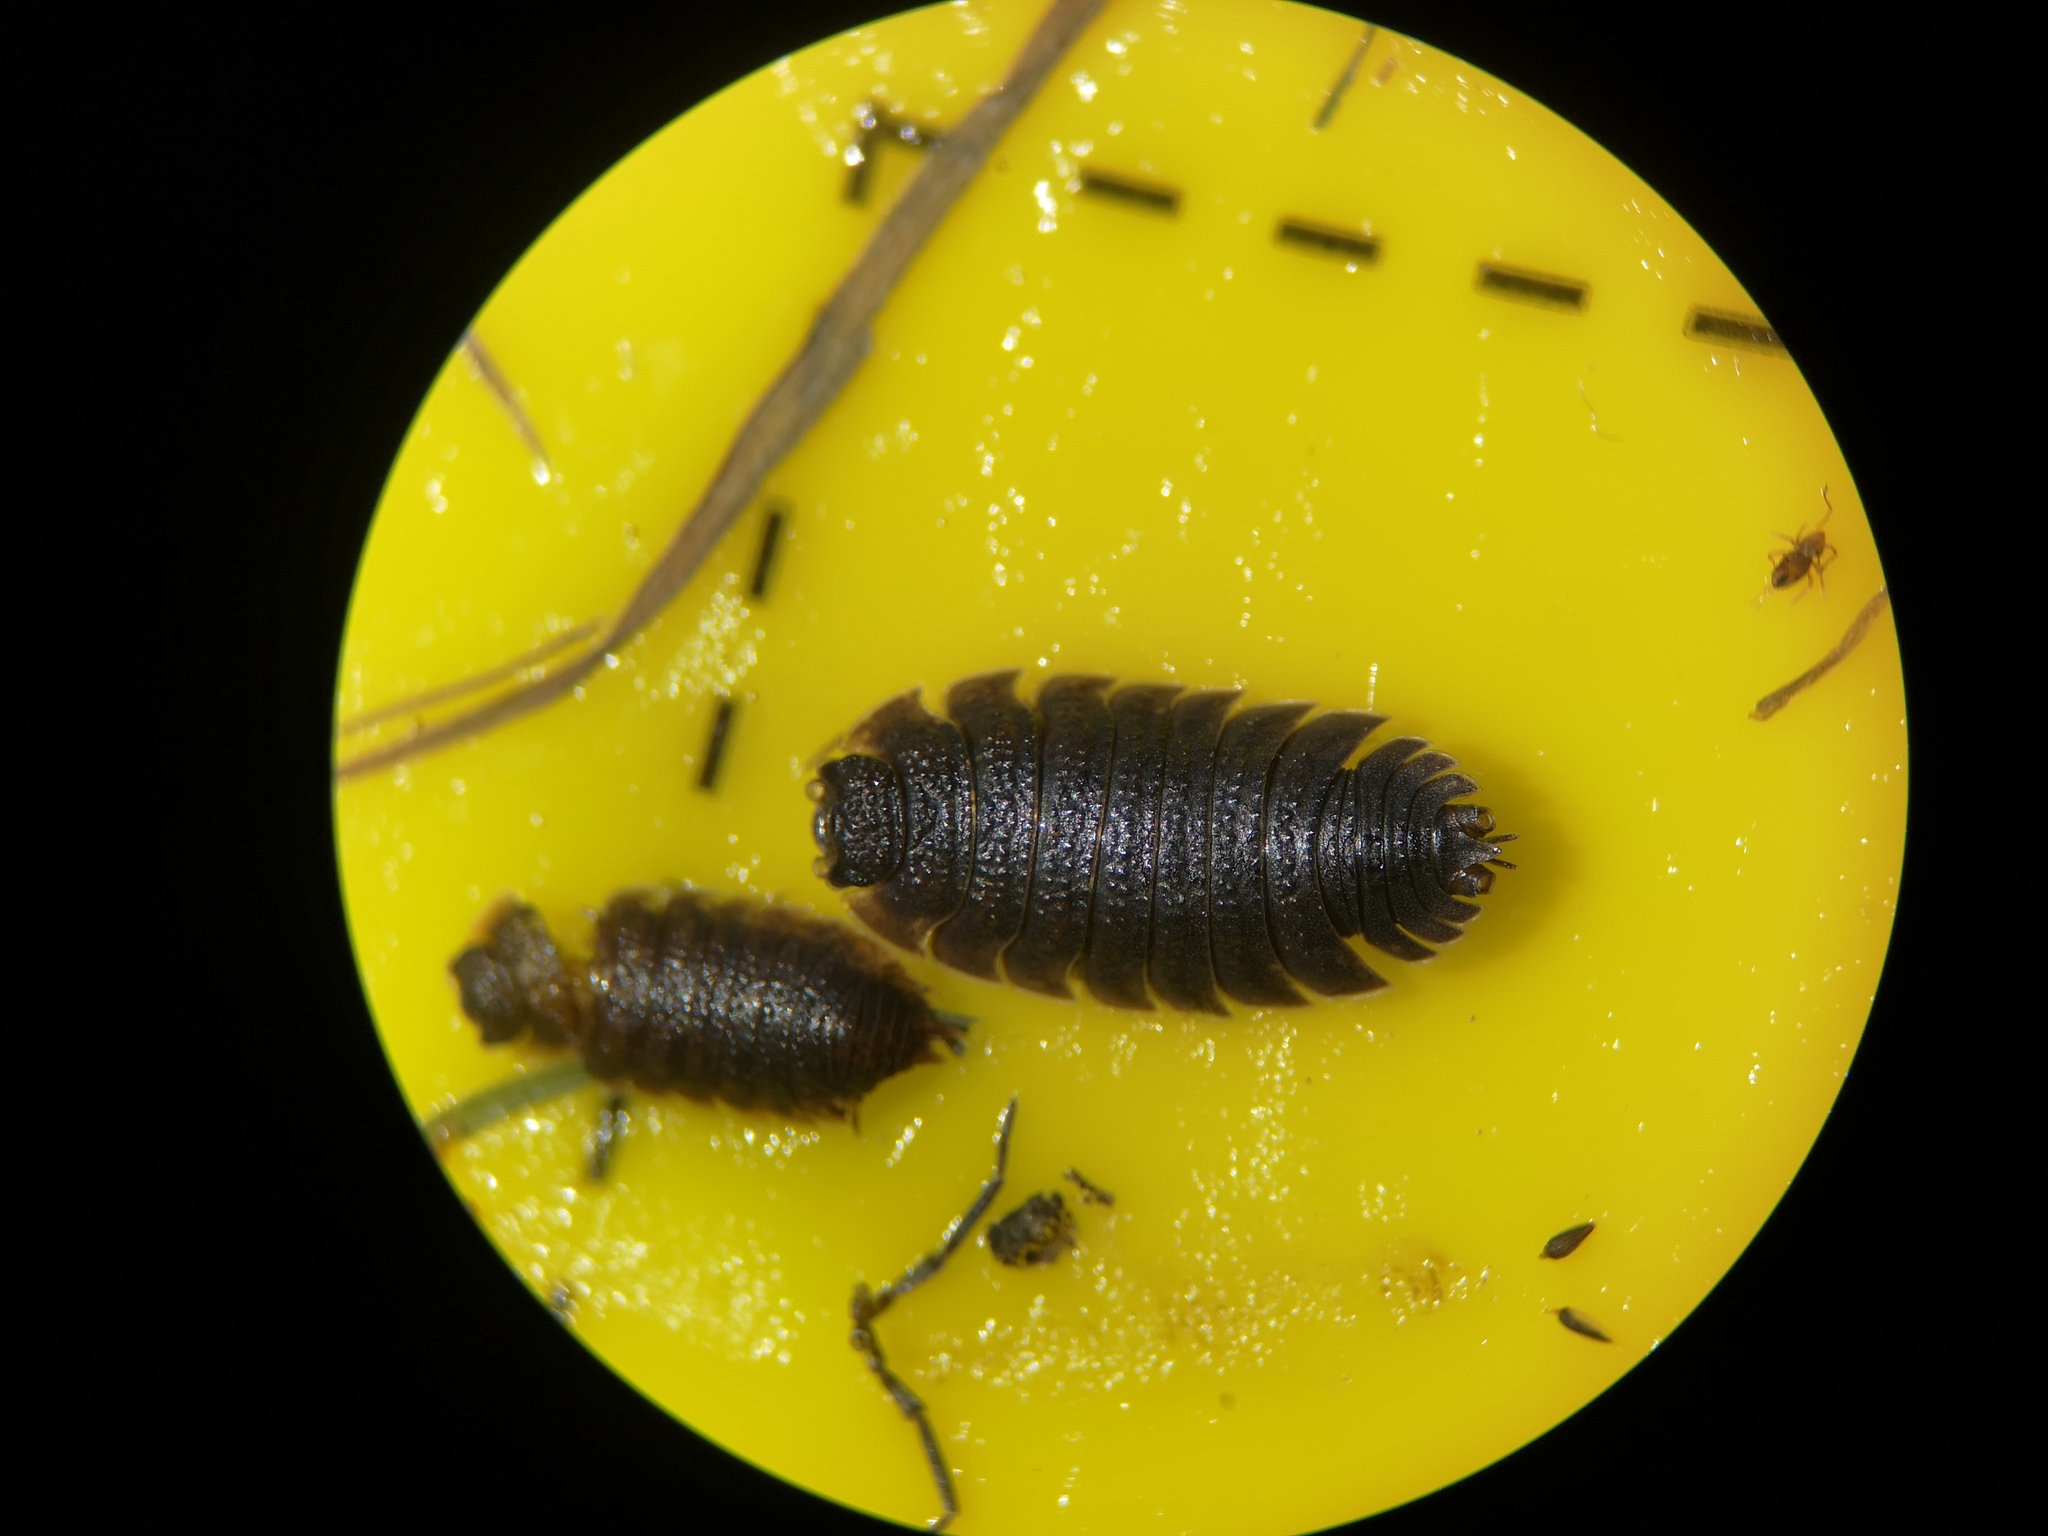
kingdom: Animalia
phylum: Arthropoda
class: Malacostraca
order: Isopoda
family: Porcellionidae
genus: Porcellio
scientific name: Porcellio scaber
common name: Common rough woodlouse
